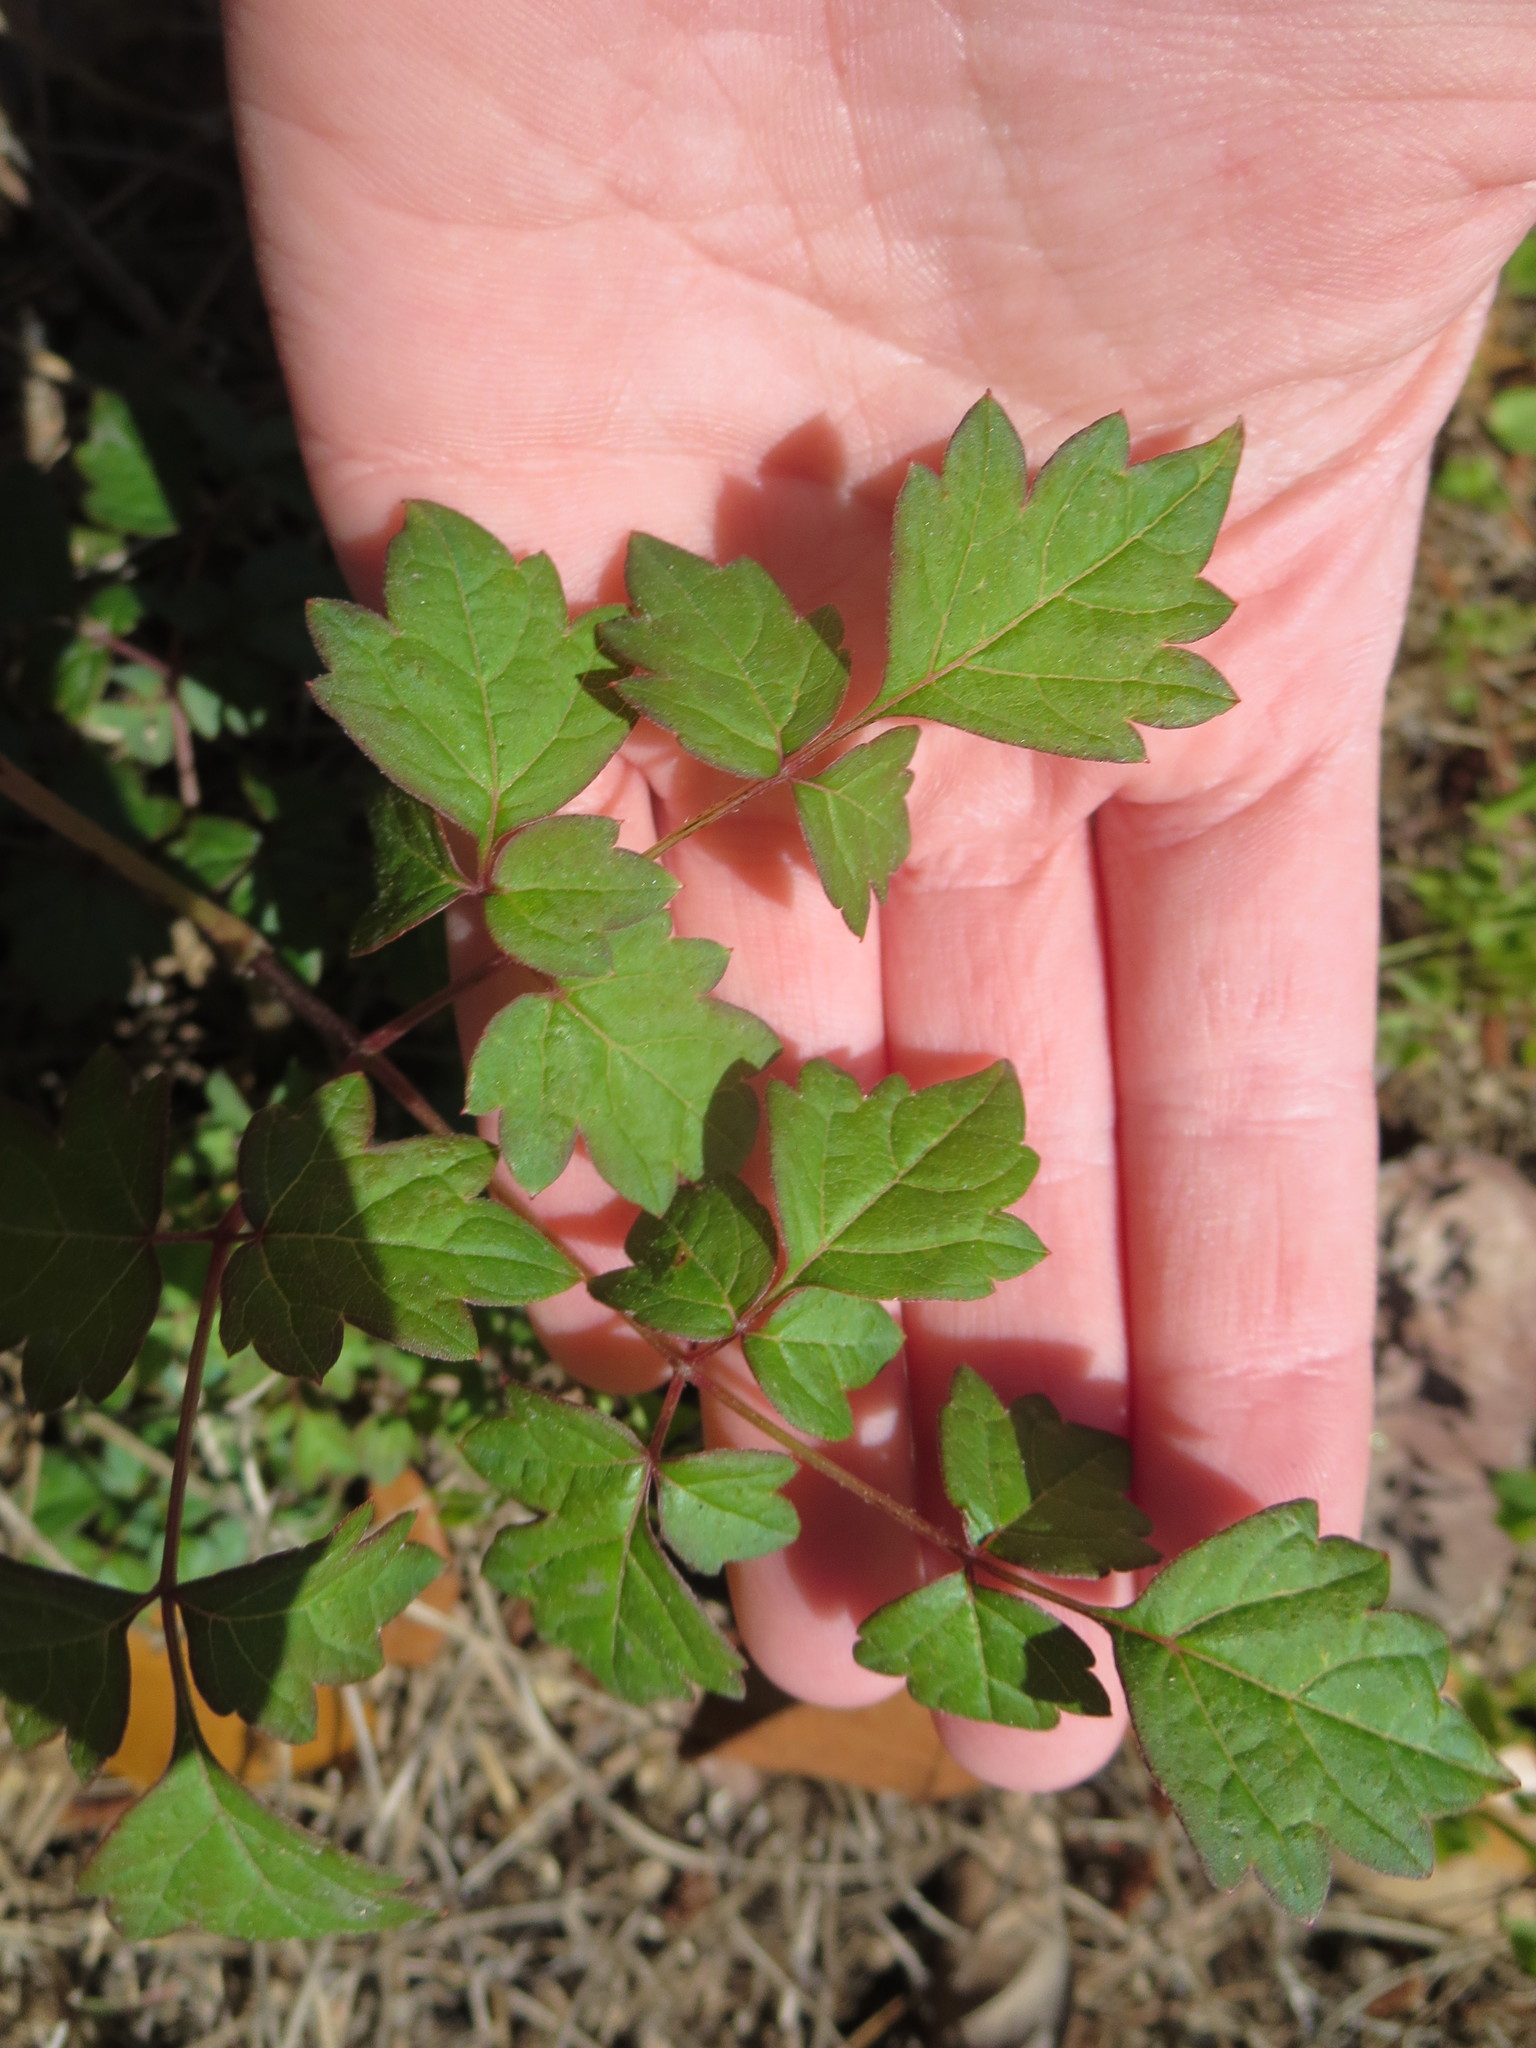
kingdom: Plantae
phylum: Tracheophyta
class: Magnoliopsida
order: Vitales
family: Vitaceae
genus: Nekemias
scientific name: Nekemias arborea
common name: Peppervine
